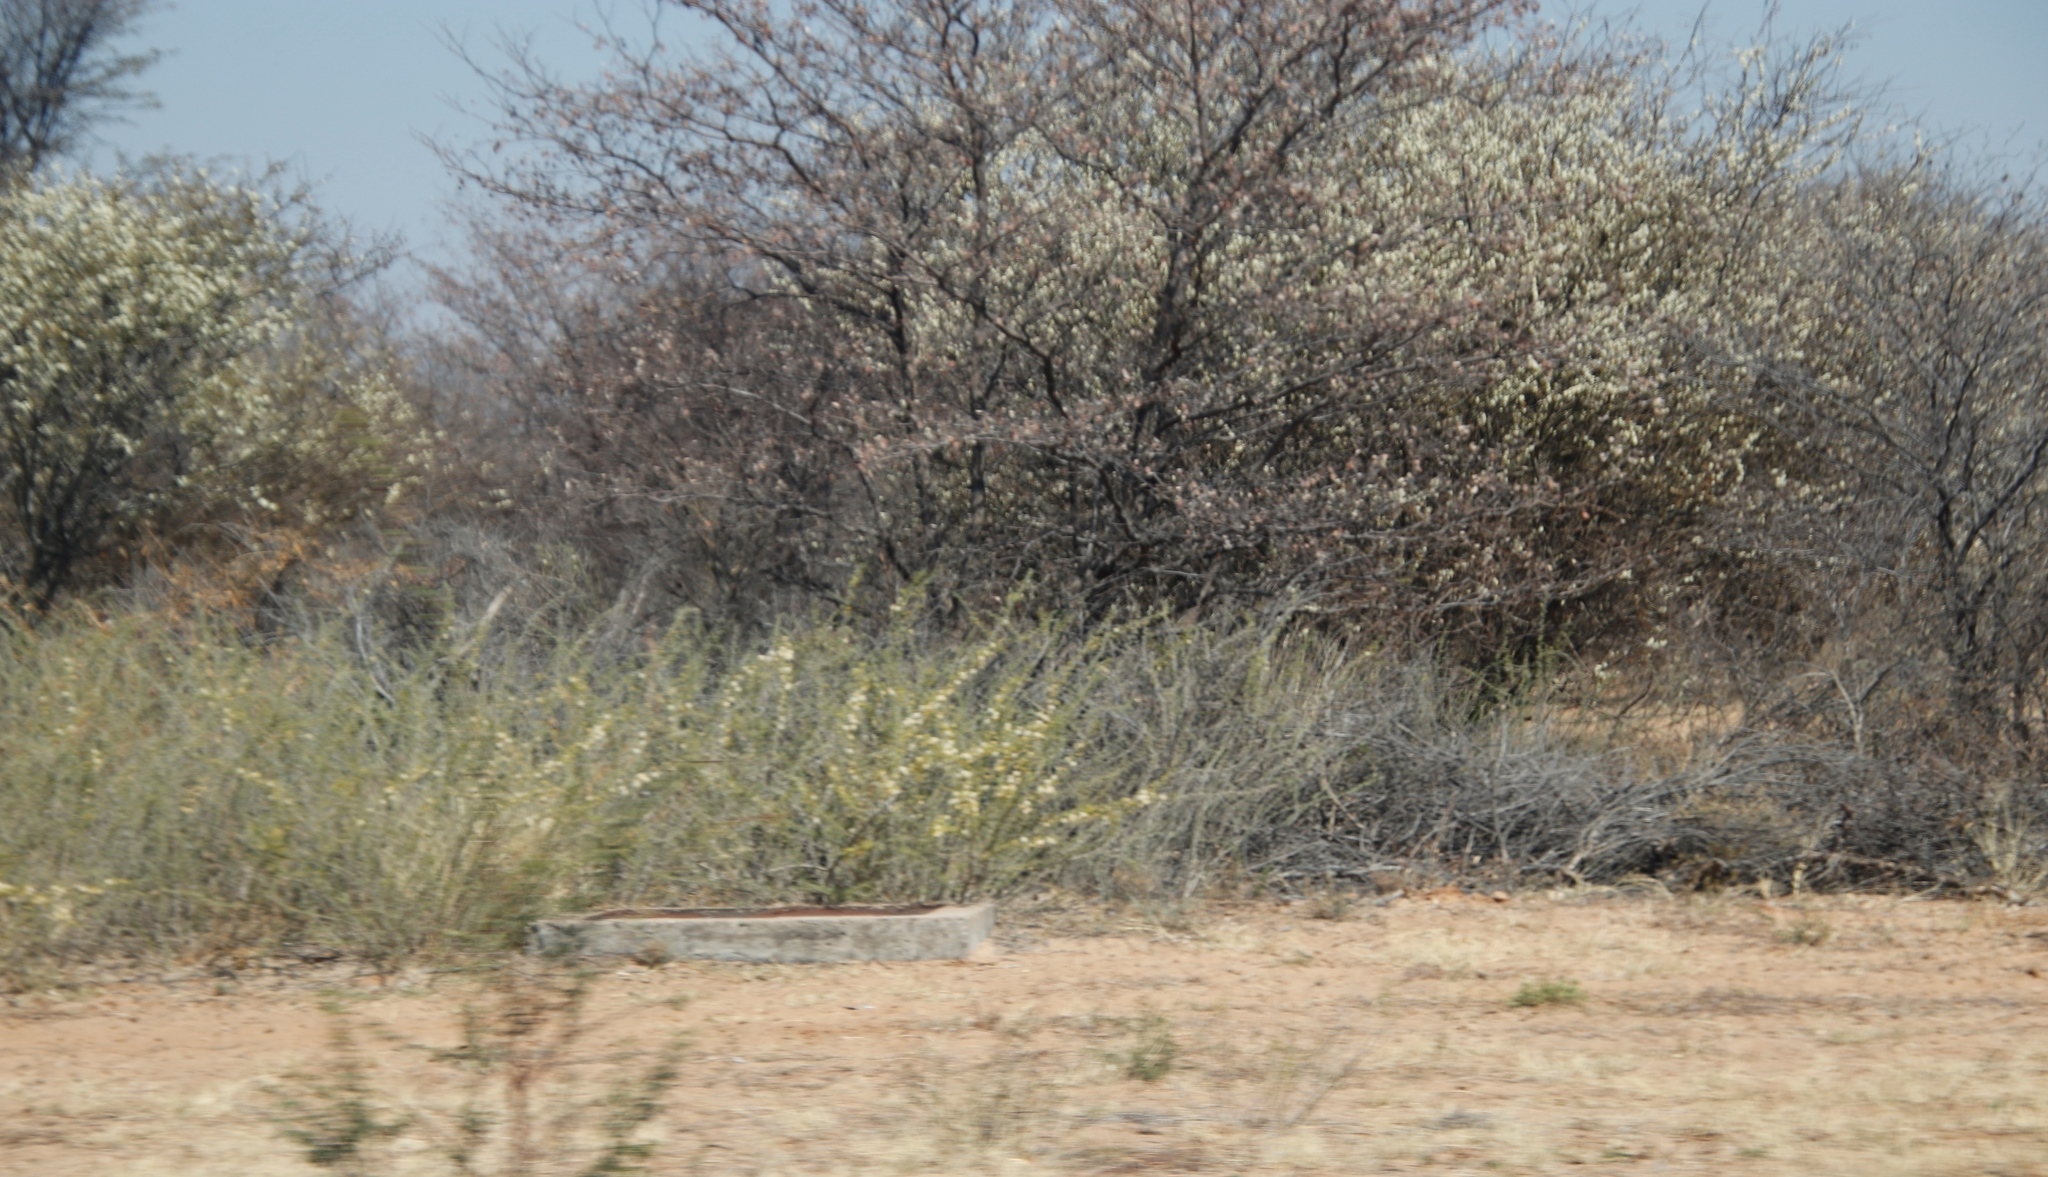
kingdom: Plantae
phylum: Tracheophyta
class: Magnoliopsida
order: Fabales
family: Fabaceae
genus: Senegalia
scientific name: Senegalia mellifera
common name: Hookthorn
